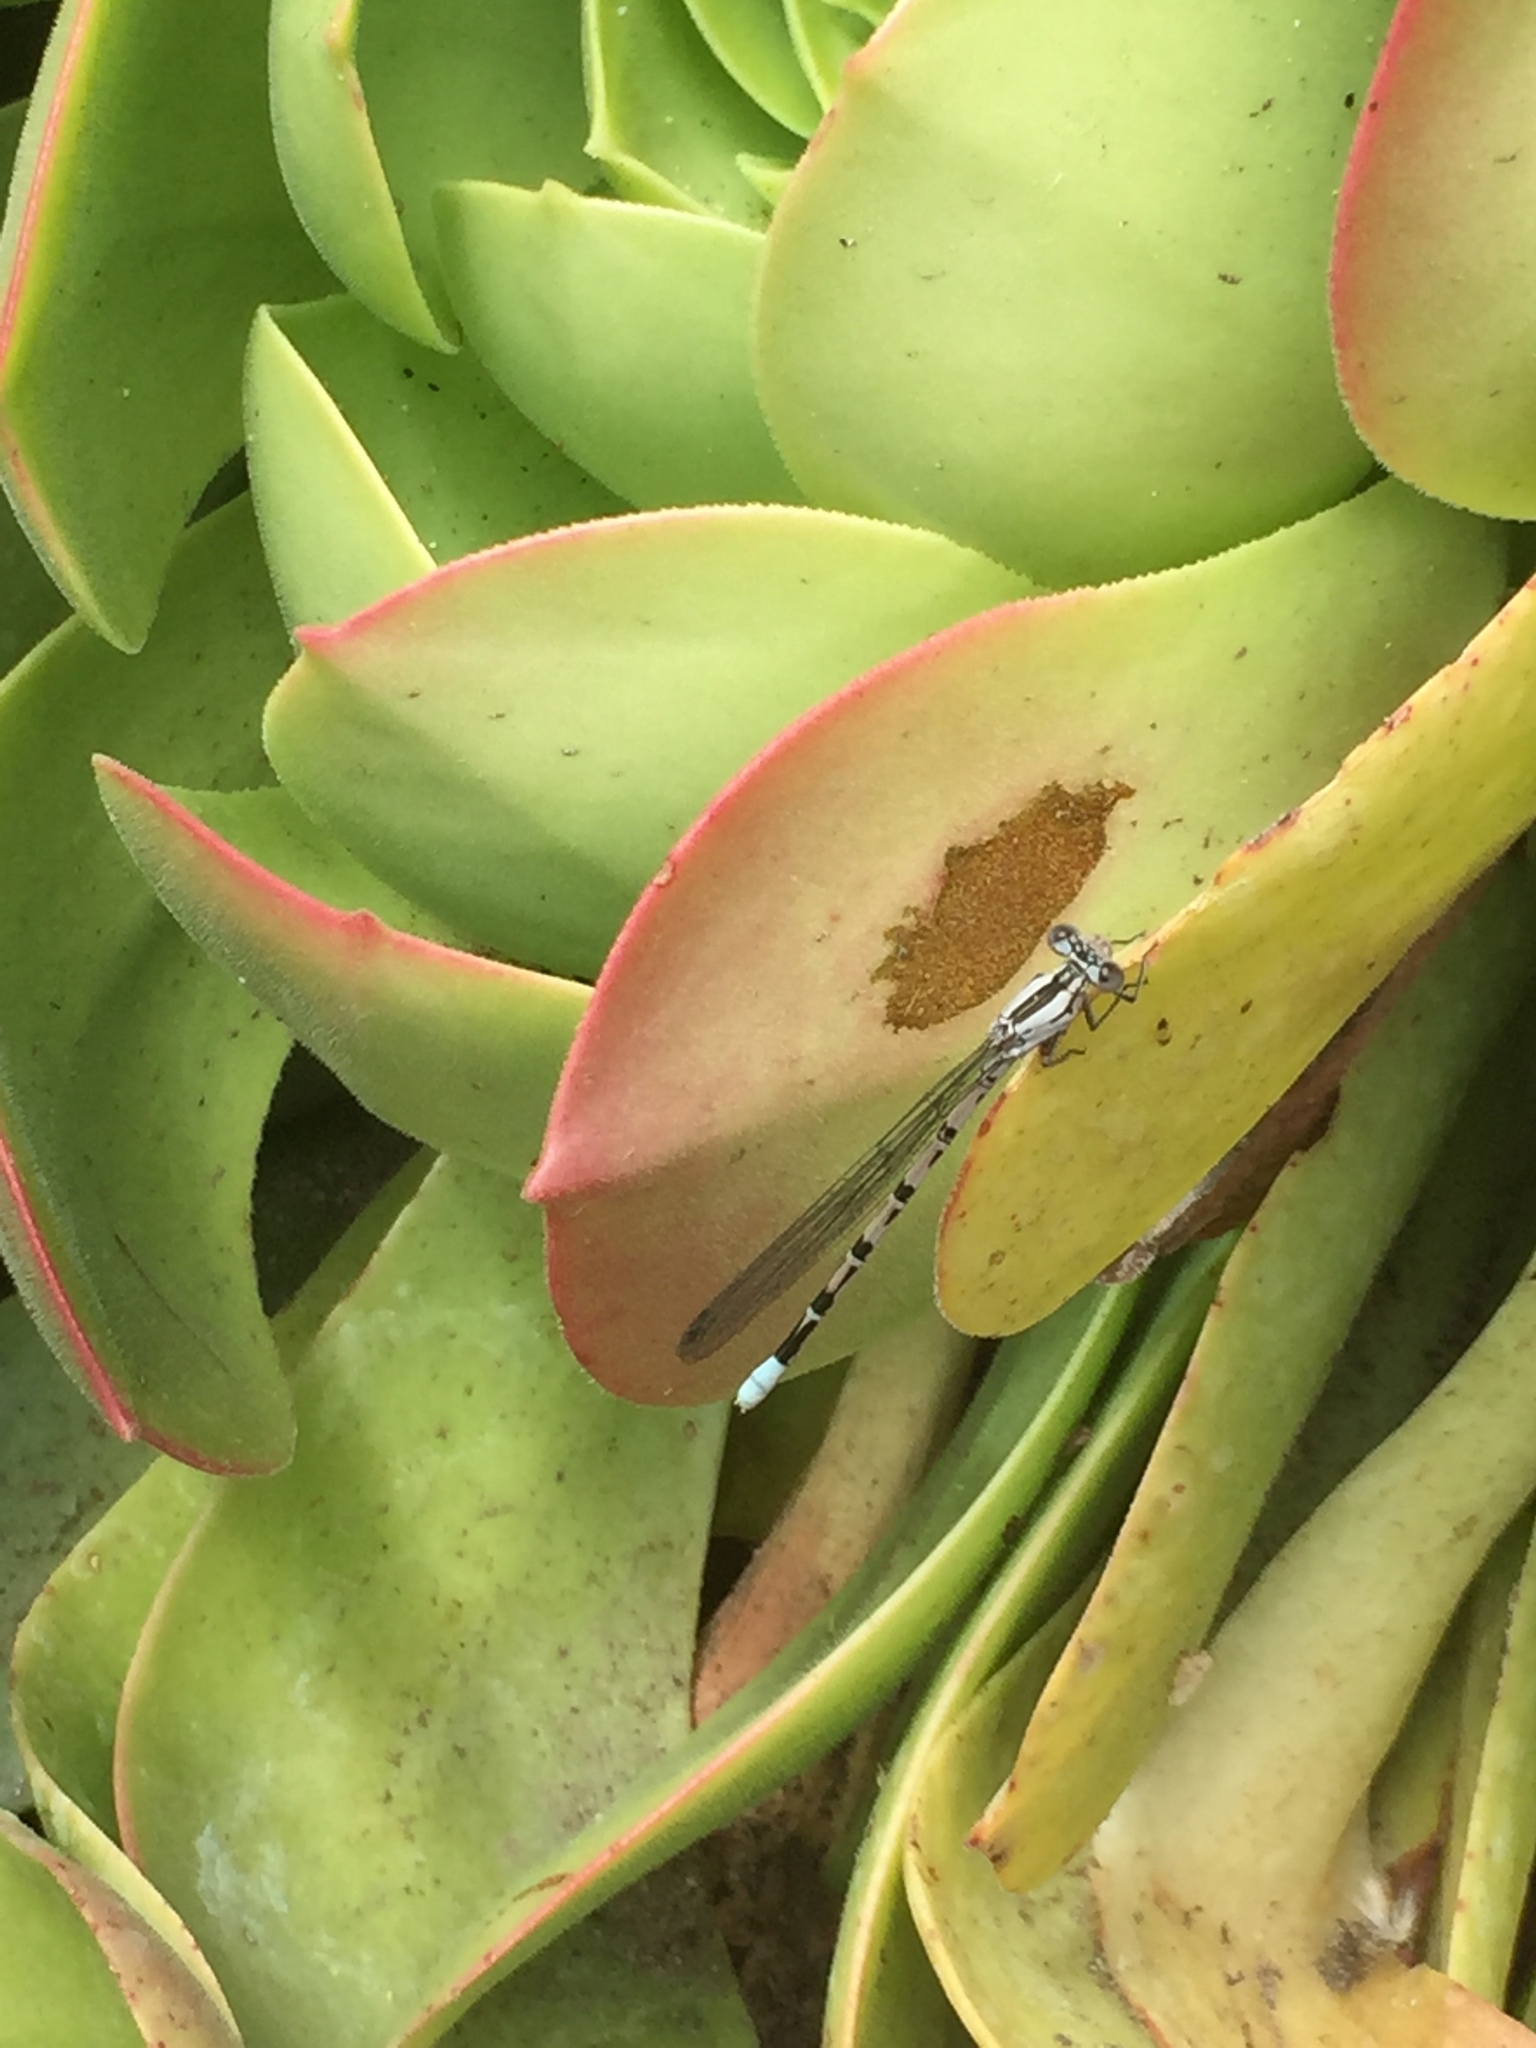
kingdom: Animalia
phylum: Arthropoda
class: Insecta
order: Odonata
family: Coenagrionidae
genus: Argia
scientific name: Argia vivida
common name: Vivid dancer
